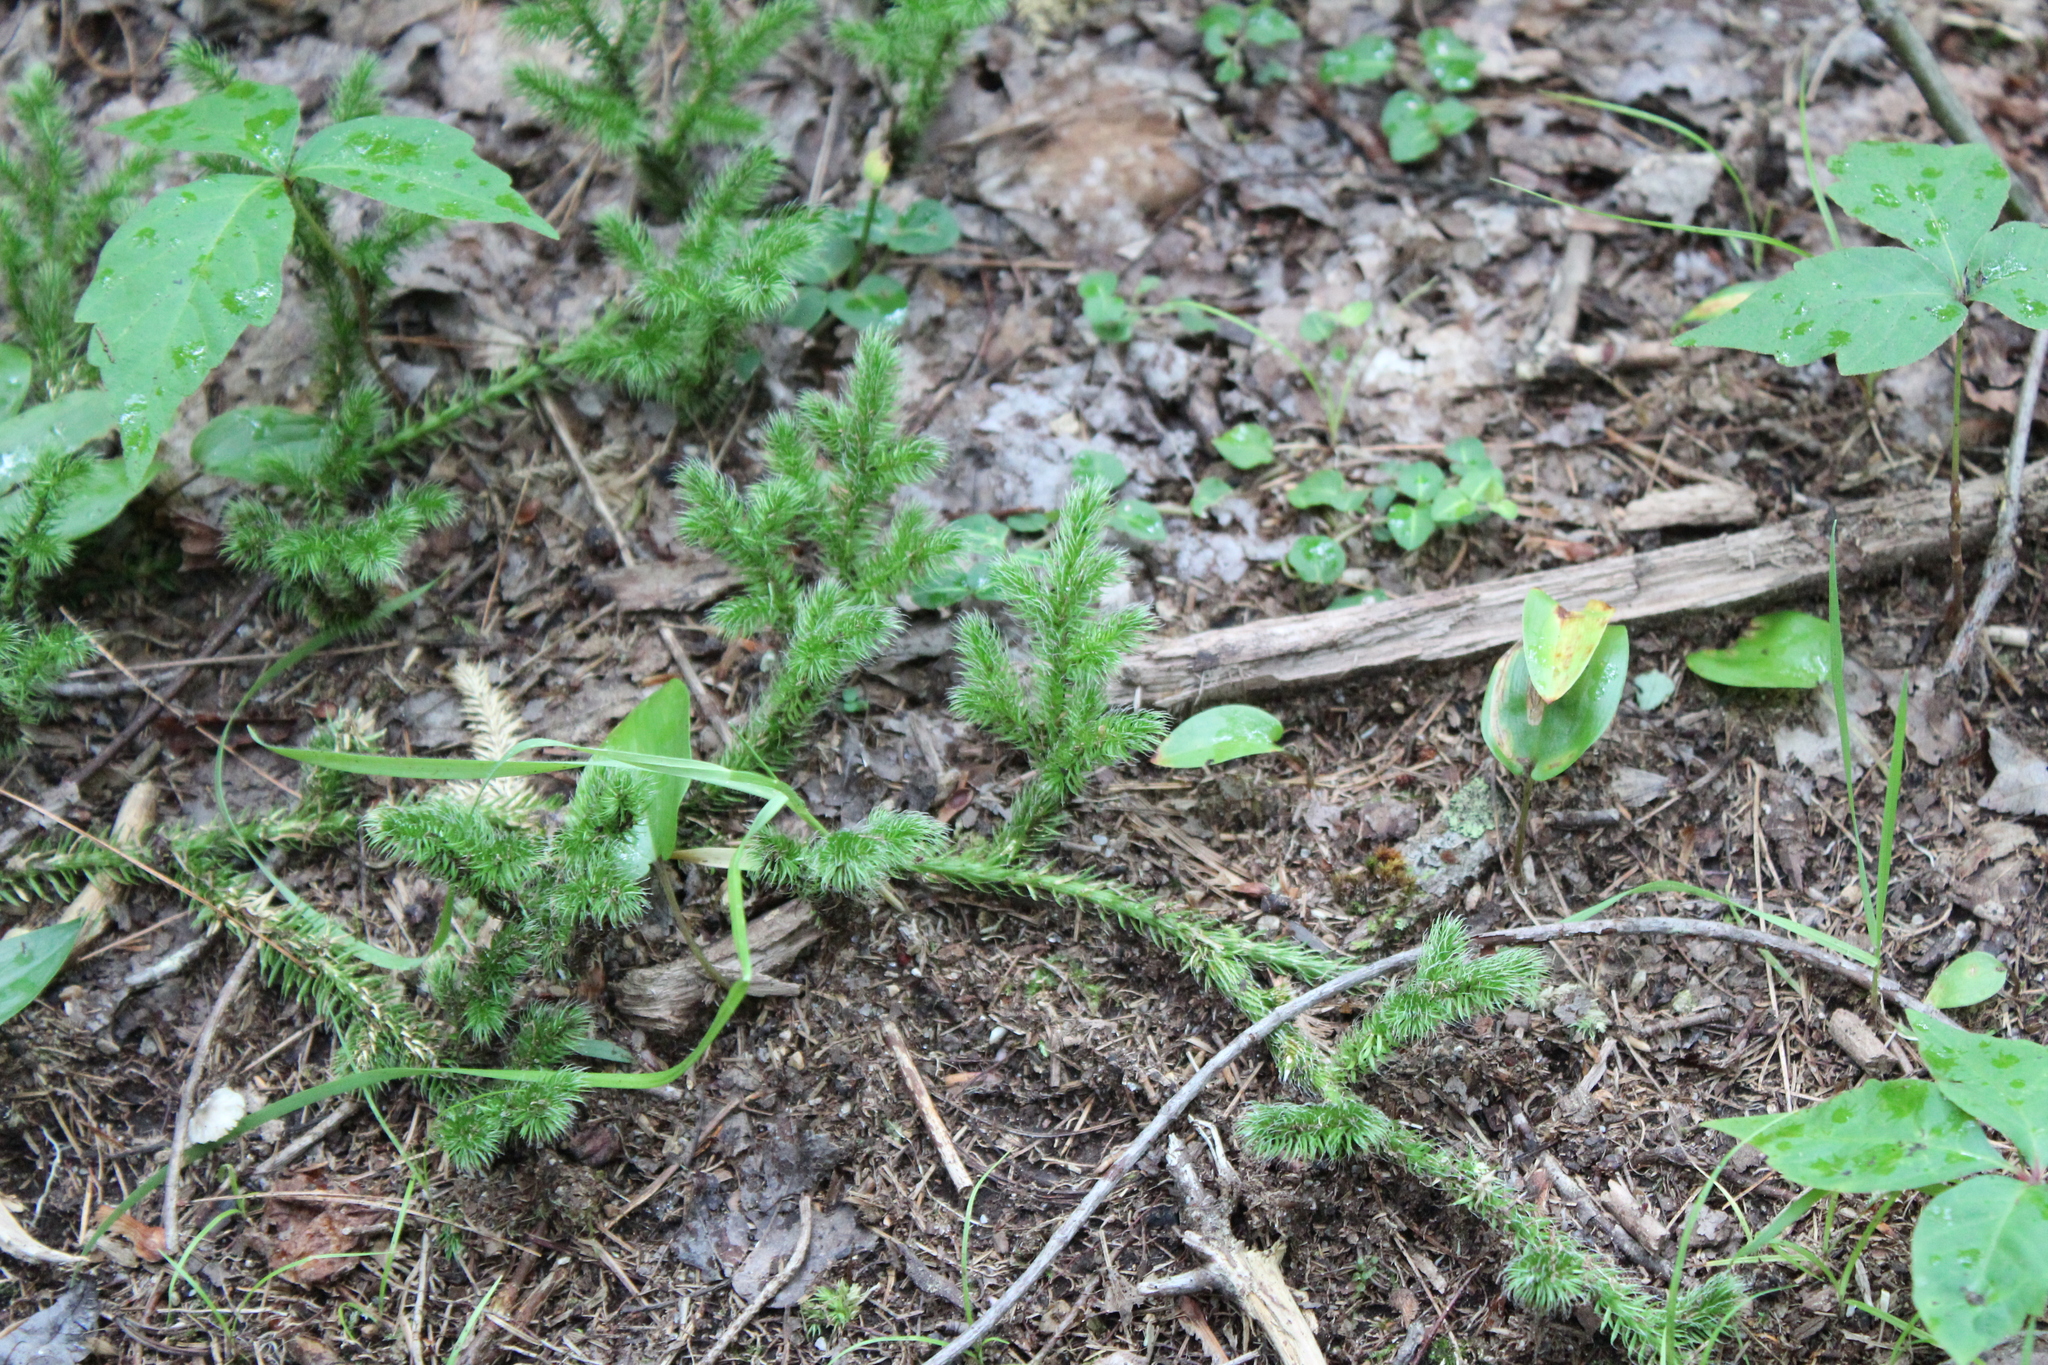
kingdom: Plantae
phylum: Tracheophyta
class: Lycopodiopsida
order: Lycopodiales
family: Lycopodiaceae
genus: Lycopodium
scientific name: Lycopodium clavatum
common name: Stag's-horn clubmoss
